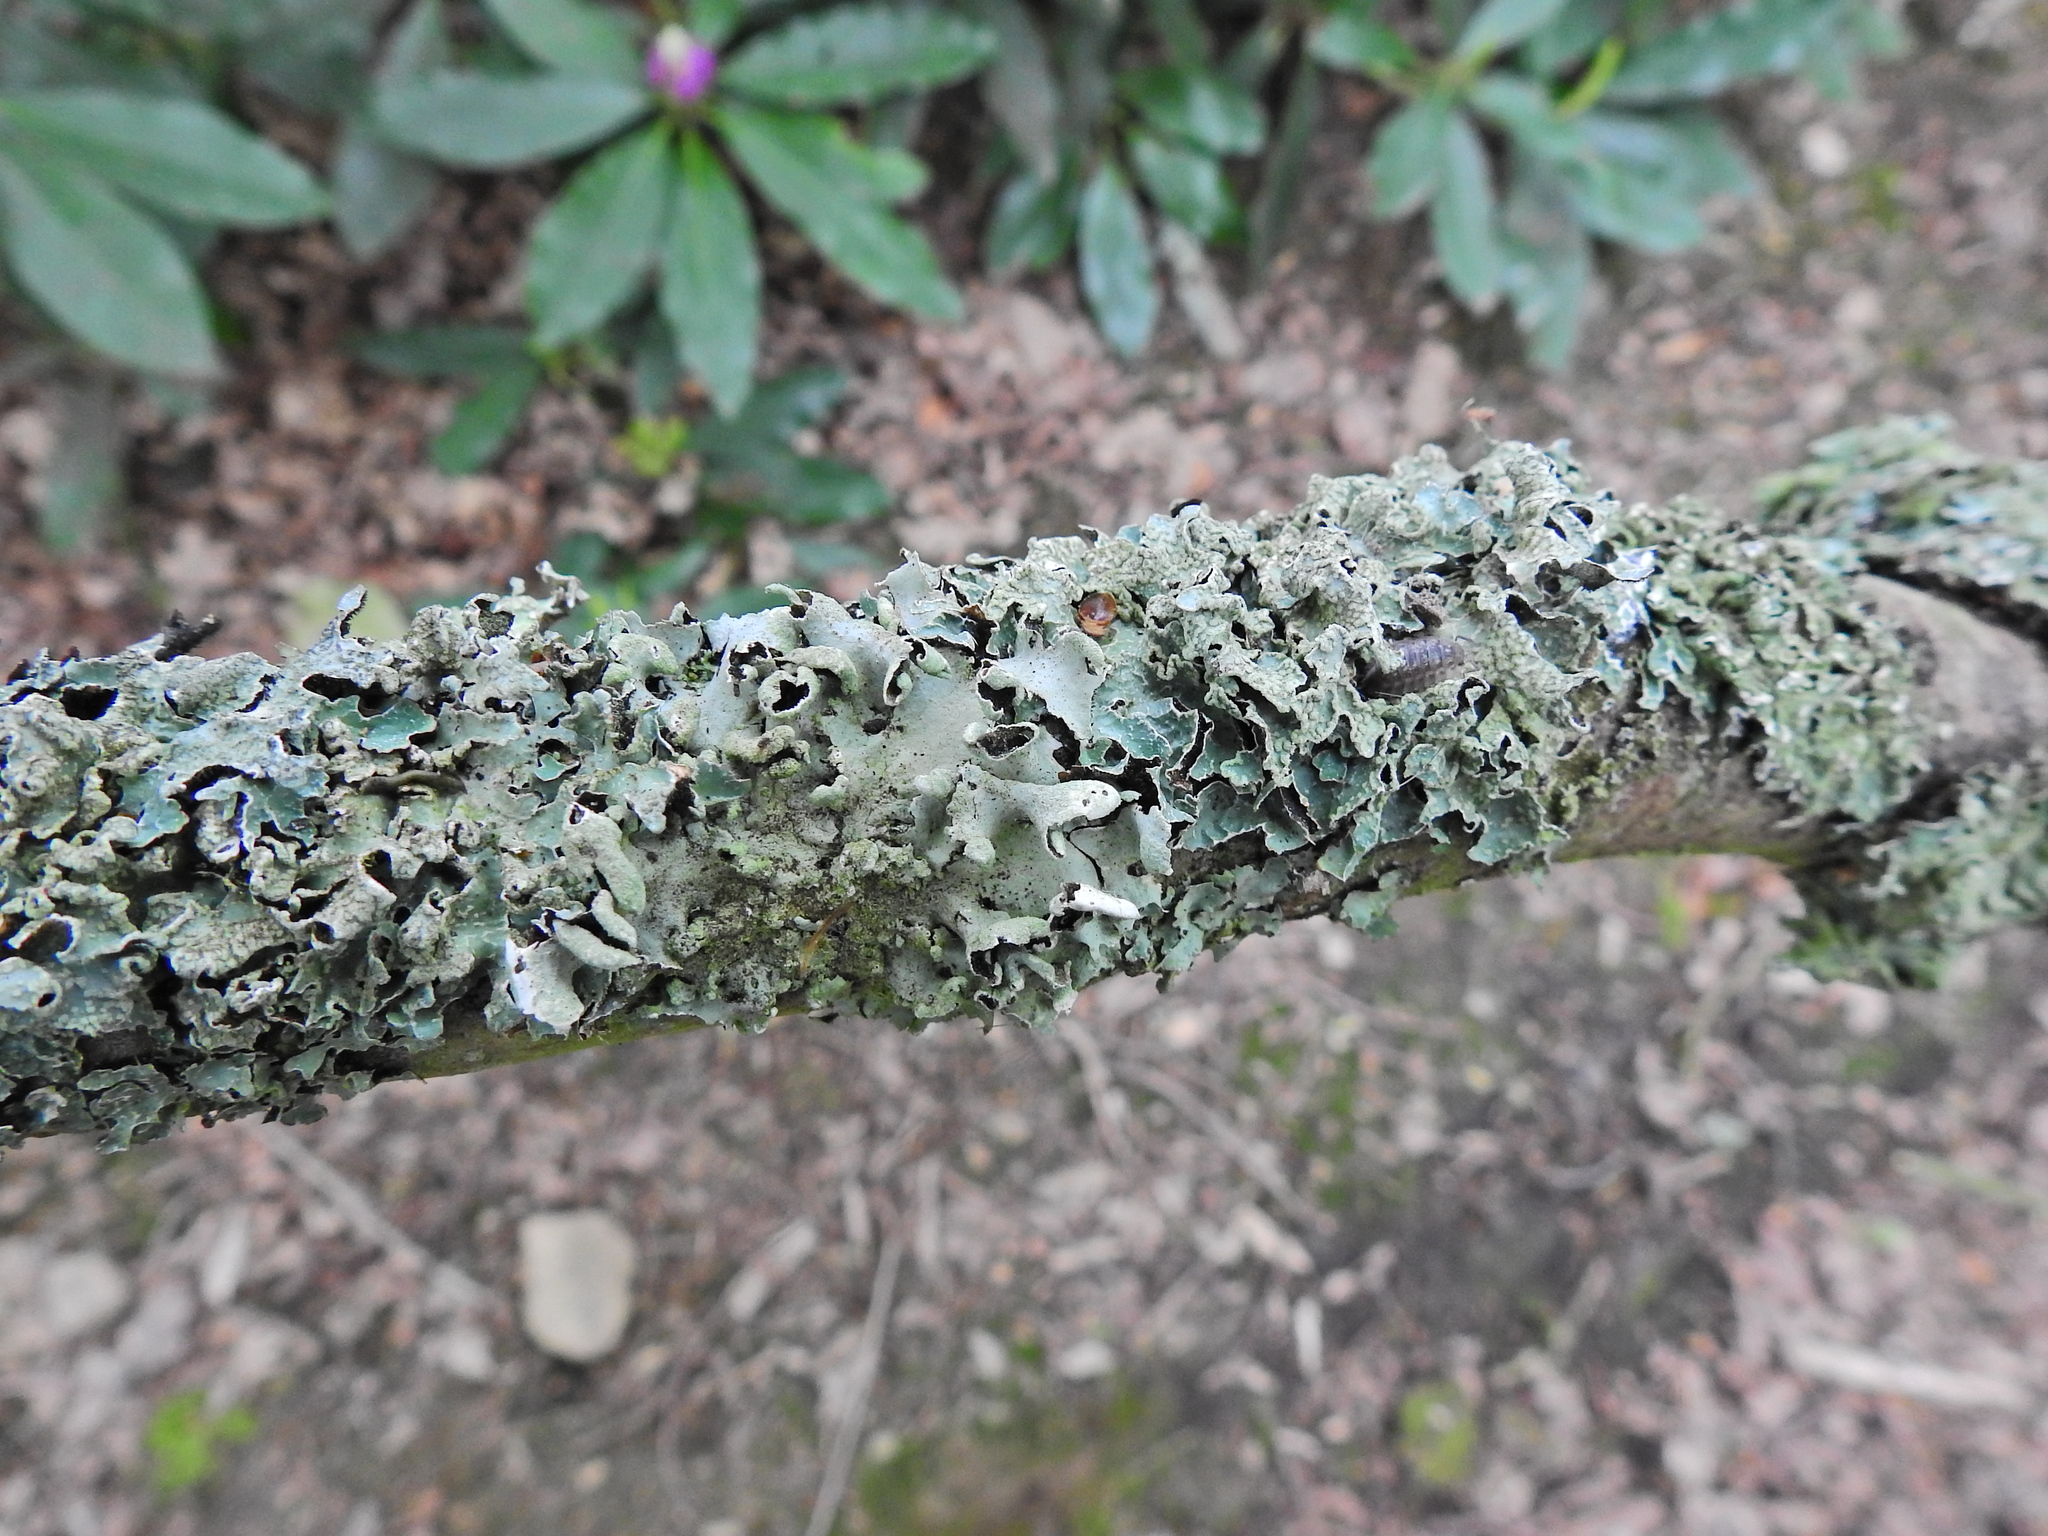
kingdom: Fungi
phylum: Ascomycota
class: Lecanoromycetes
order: Lecanorales
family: Parmeliaceae
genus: Parmelia
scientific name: Parmelia sulcata
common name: Netted shield lichen
